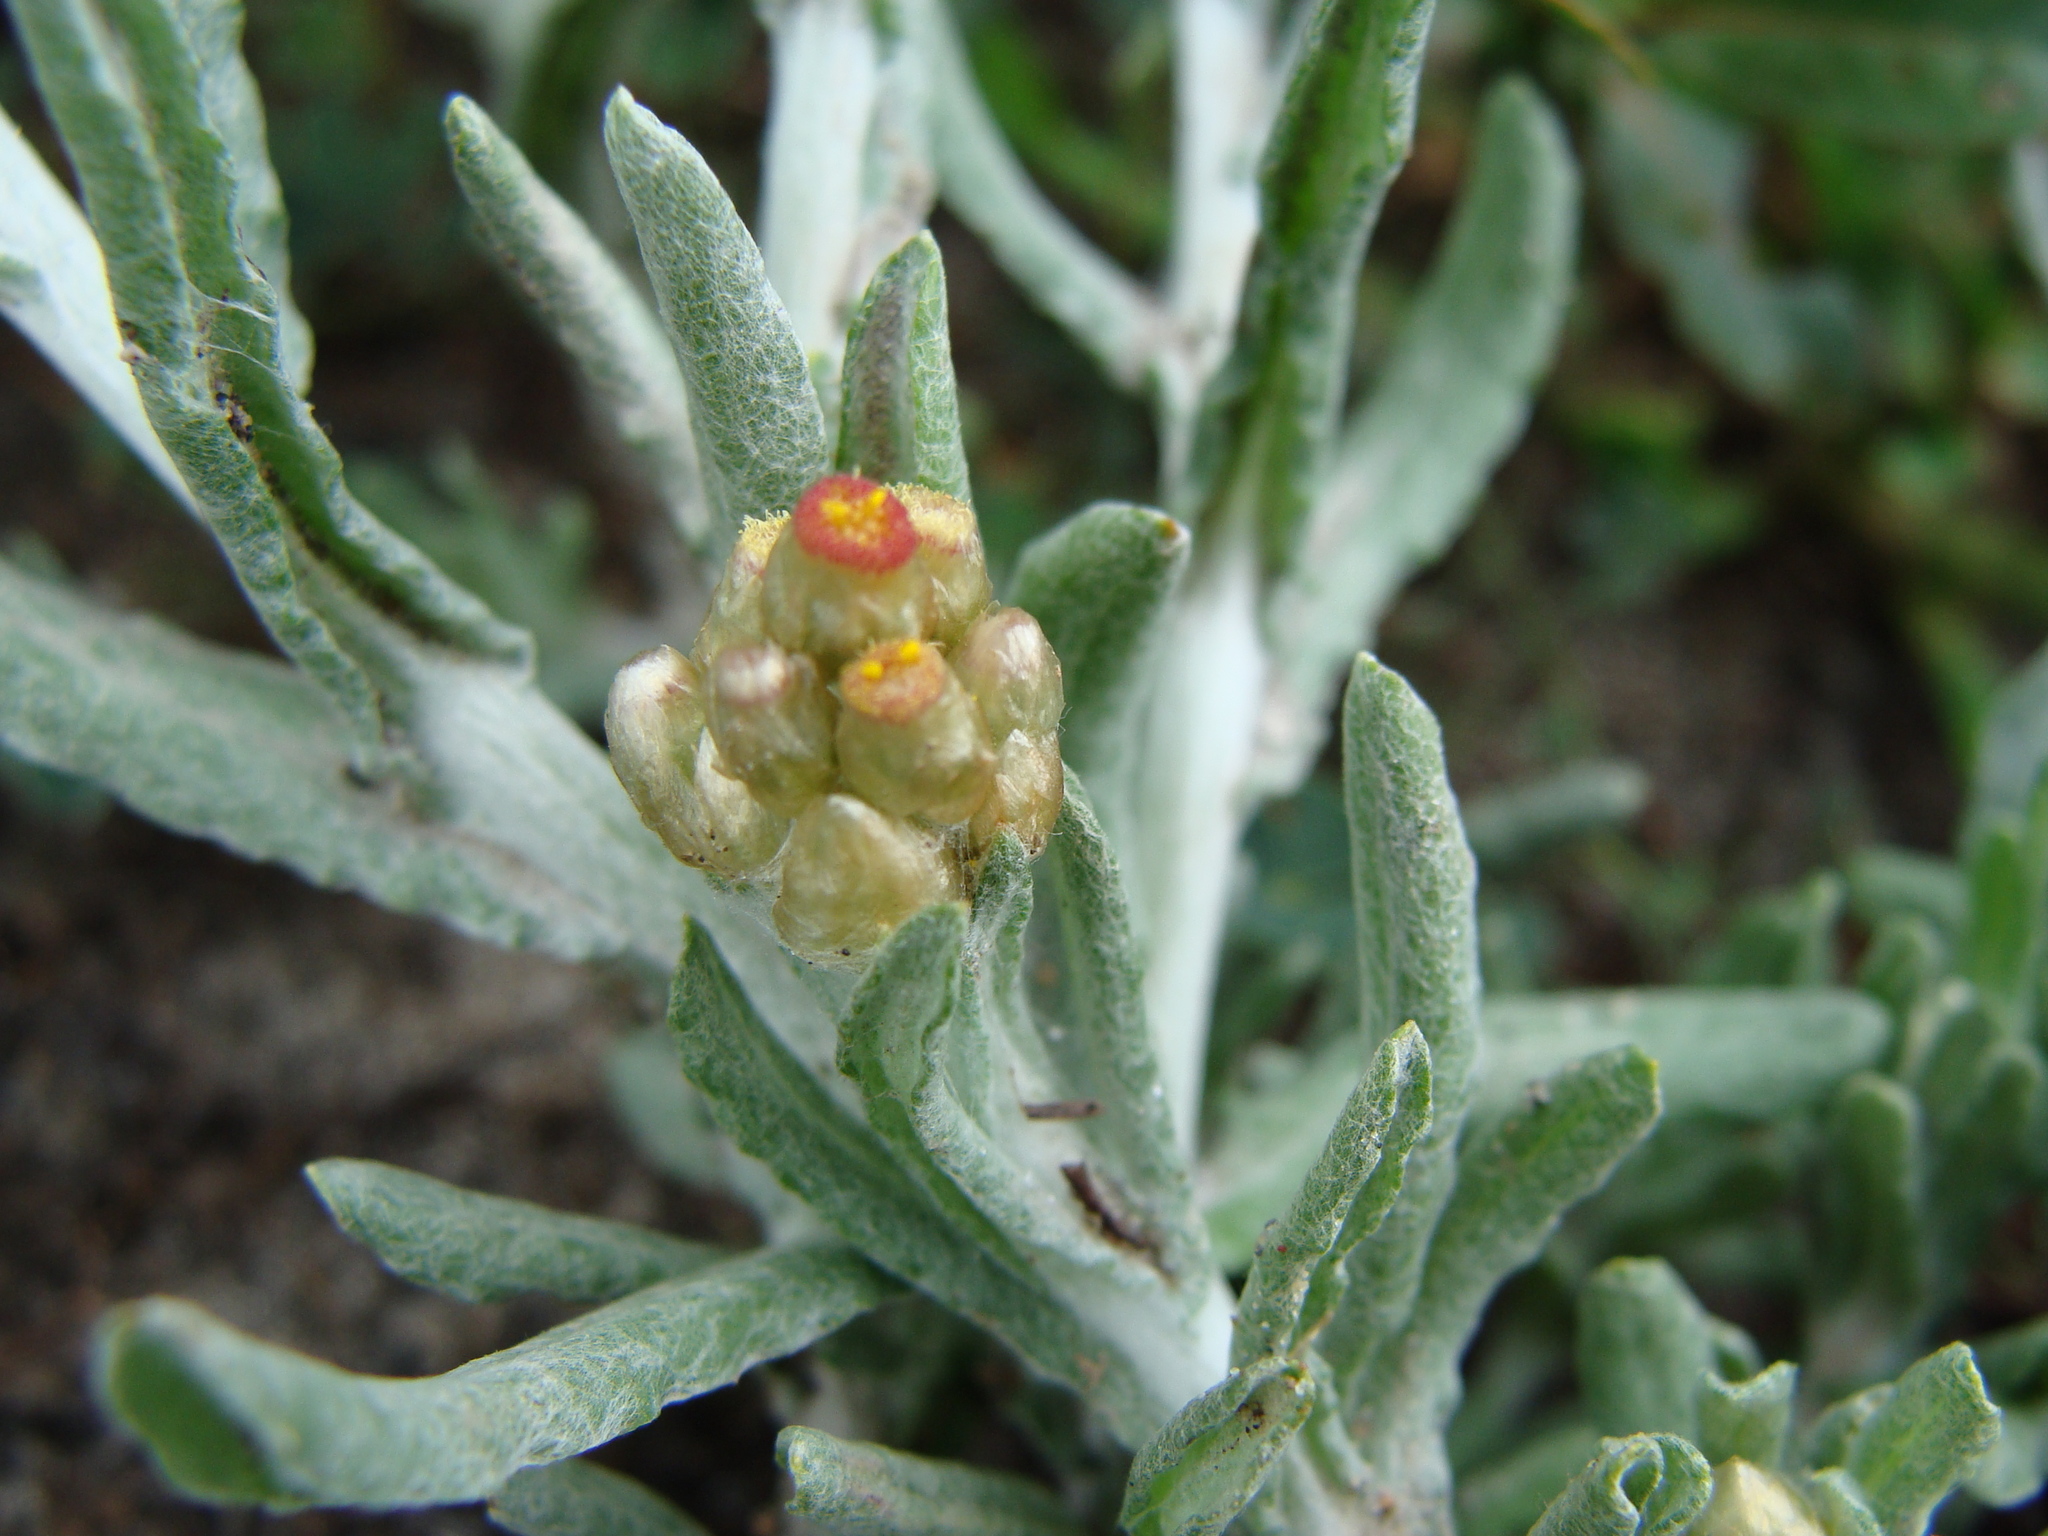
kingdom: Plantae
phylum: Tracheophyta
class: Magnoliopsida
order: Asterales
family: Asteraceae
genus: Helichrysum
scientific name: Helichrysum luteoalbum
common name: Daisy
